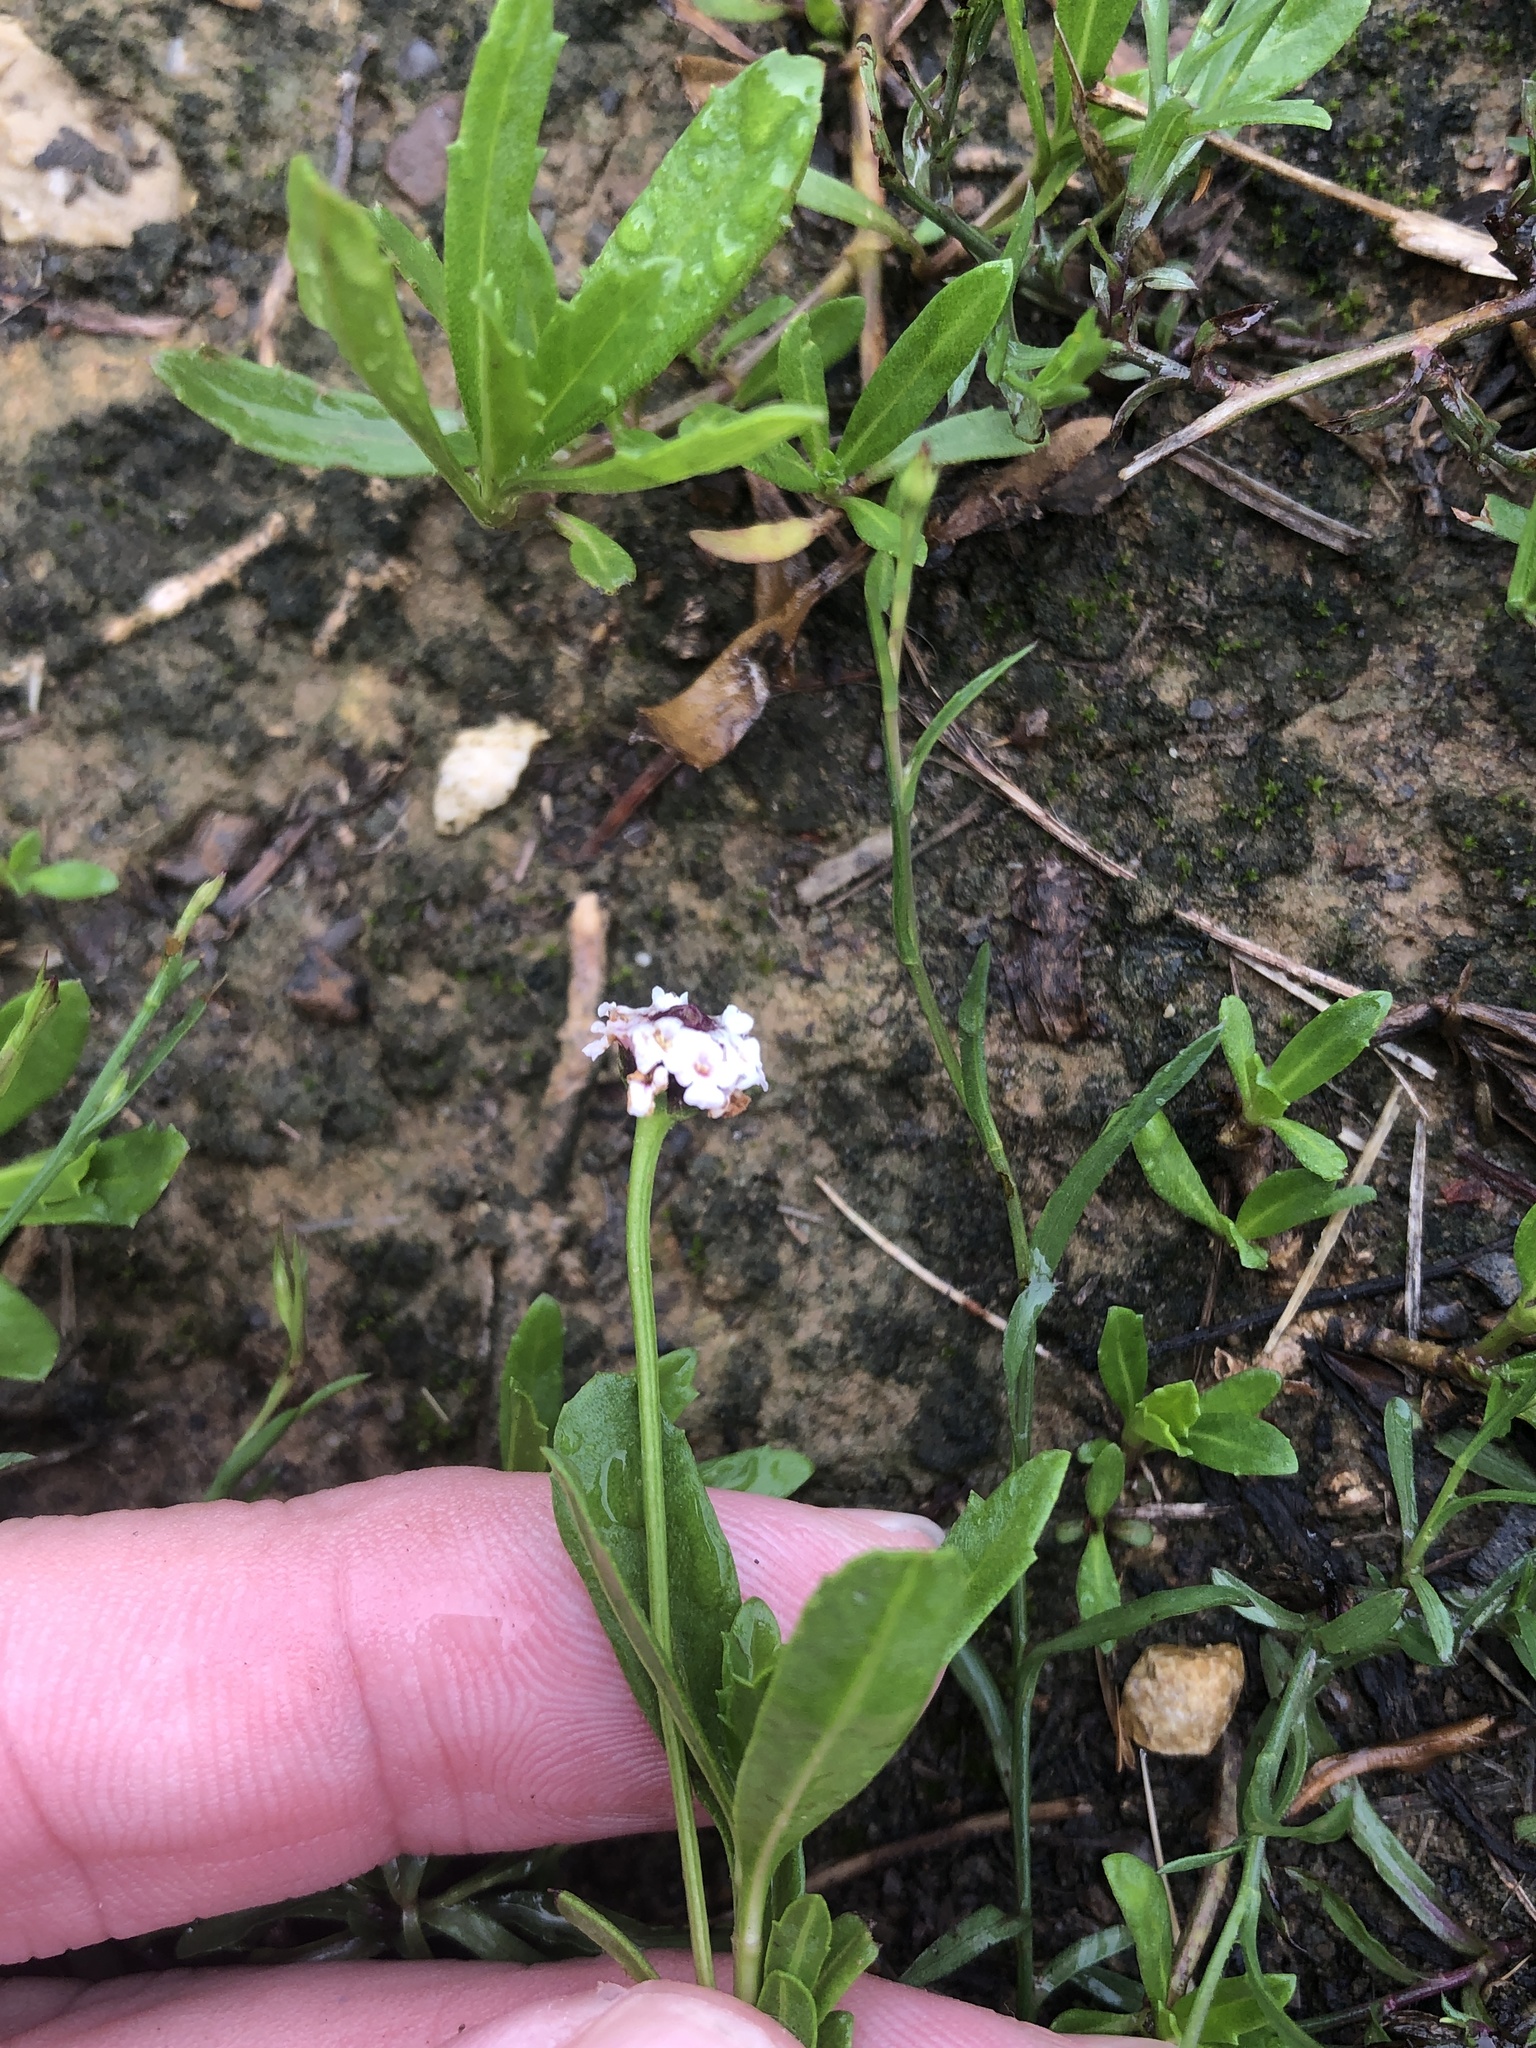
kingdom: Plantae
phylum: Tracheophyta
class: Magnoliopsida
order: Lamiales
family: Verbenaceae
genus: Phyla
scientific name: Phyla nodiflora
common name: Frogfruit
